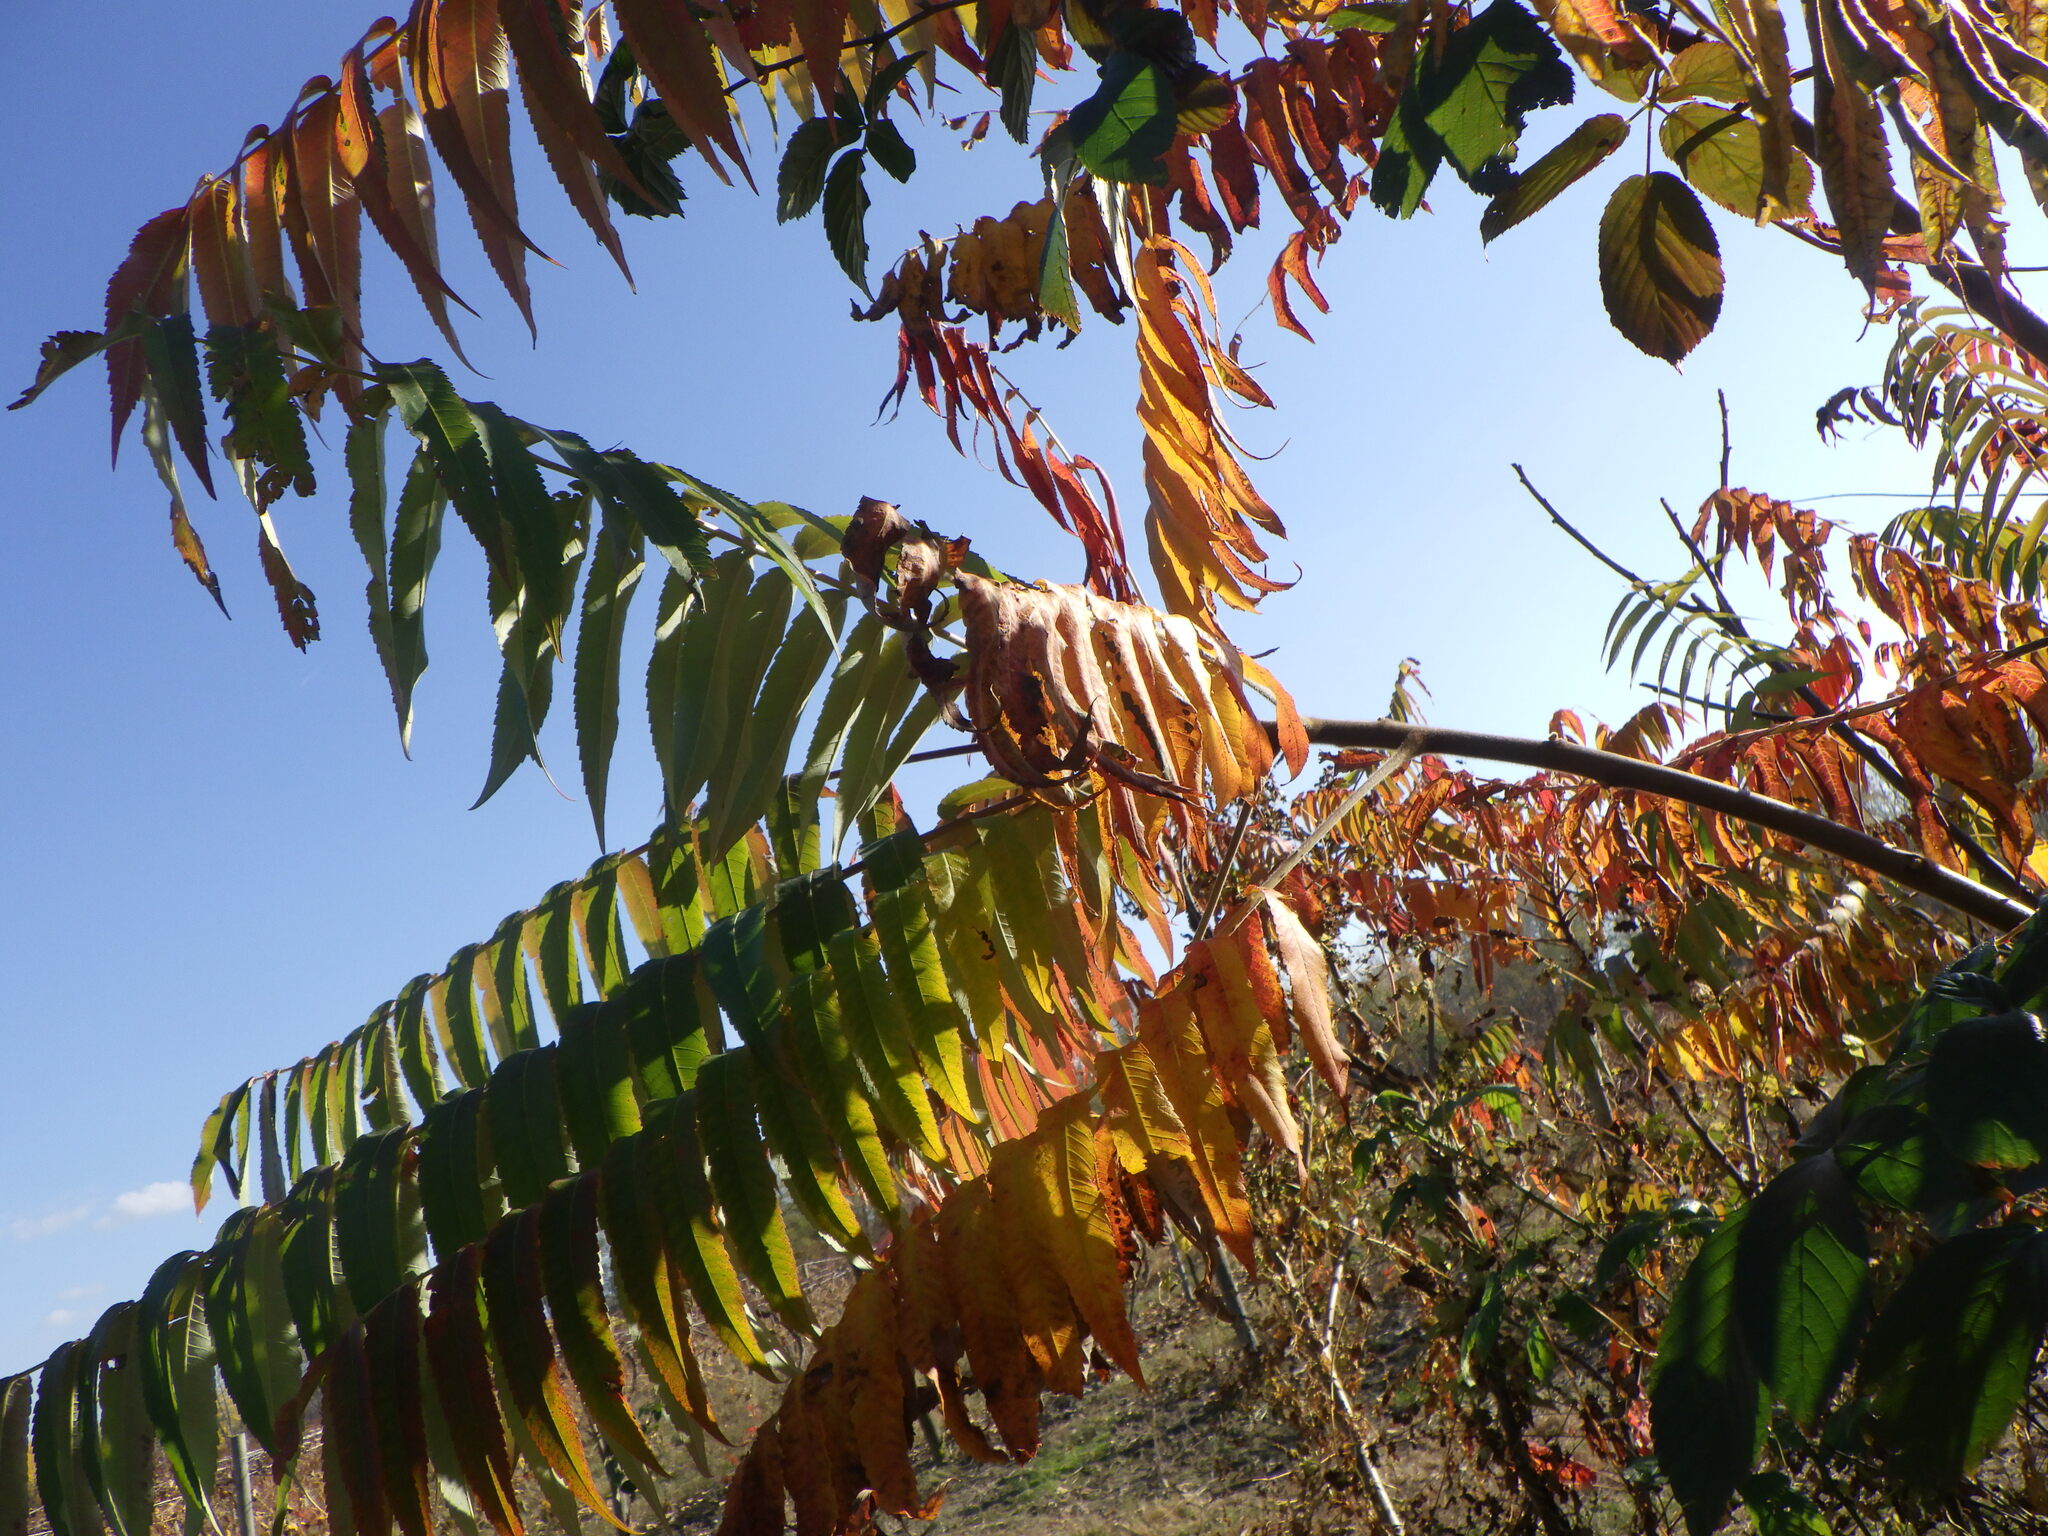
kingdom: Plantae
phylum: Tracheophyta
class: Magnoliopsida
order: Sapindales
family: Anacardiaceae
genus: Rhus
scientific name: Rhus typhina
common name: Staghorn sumac
